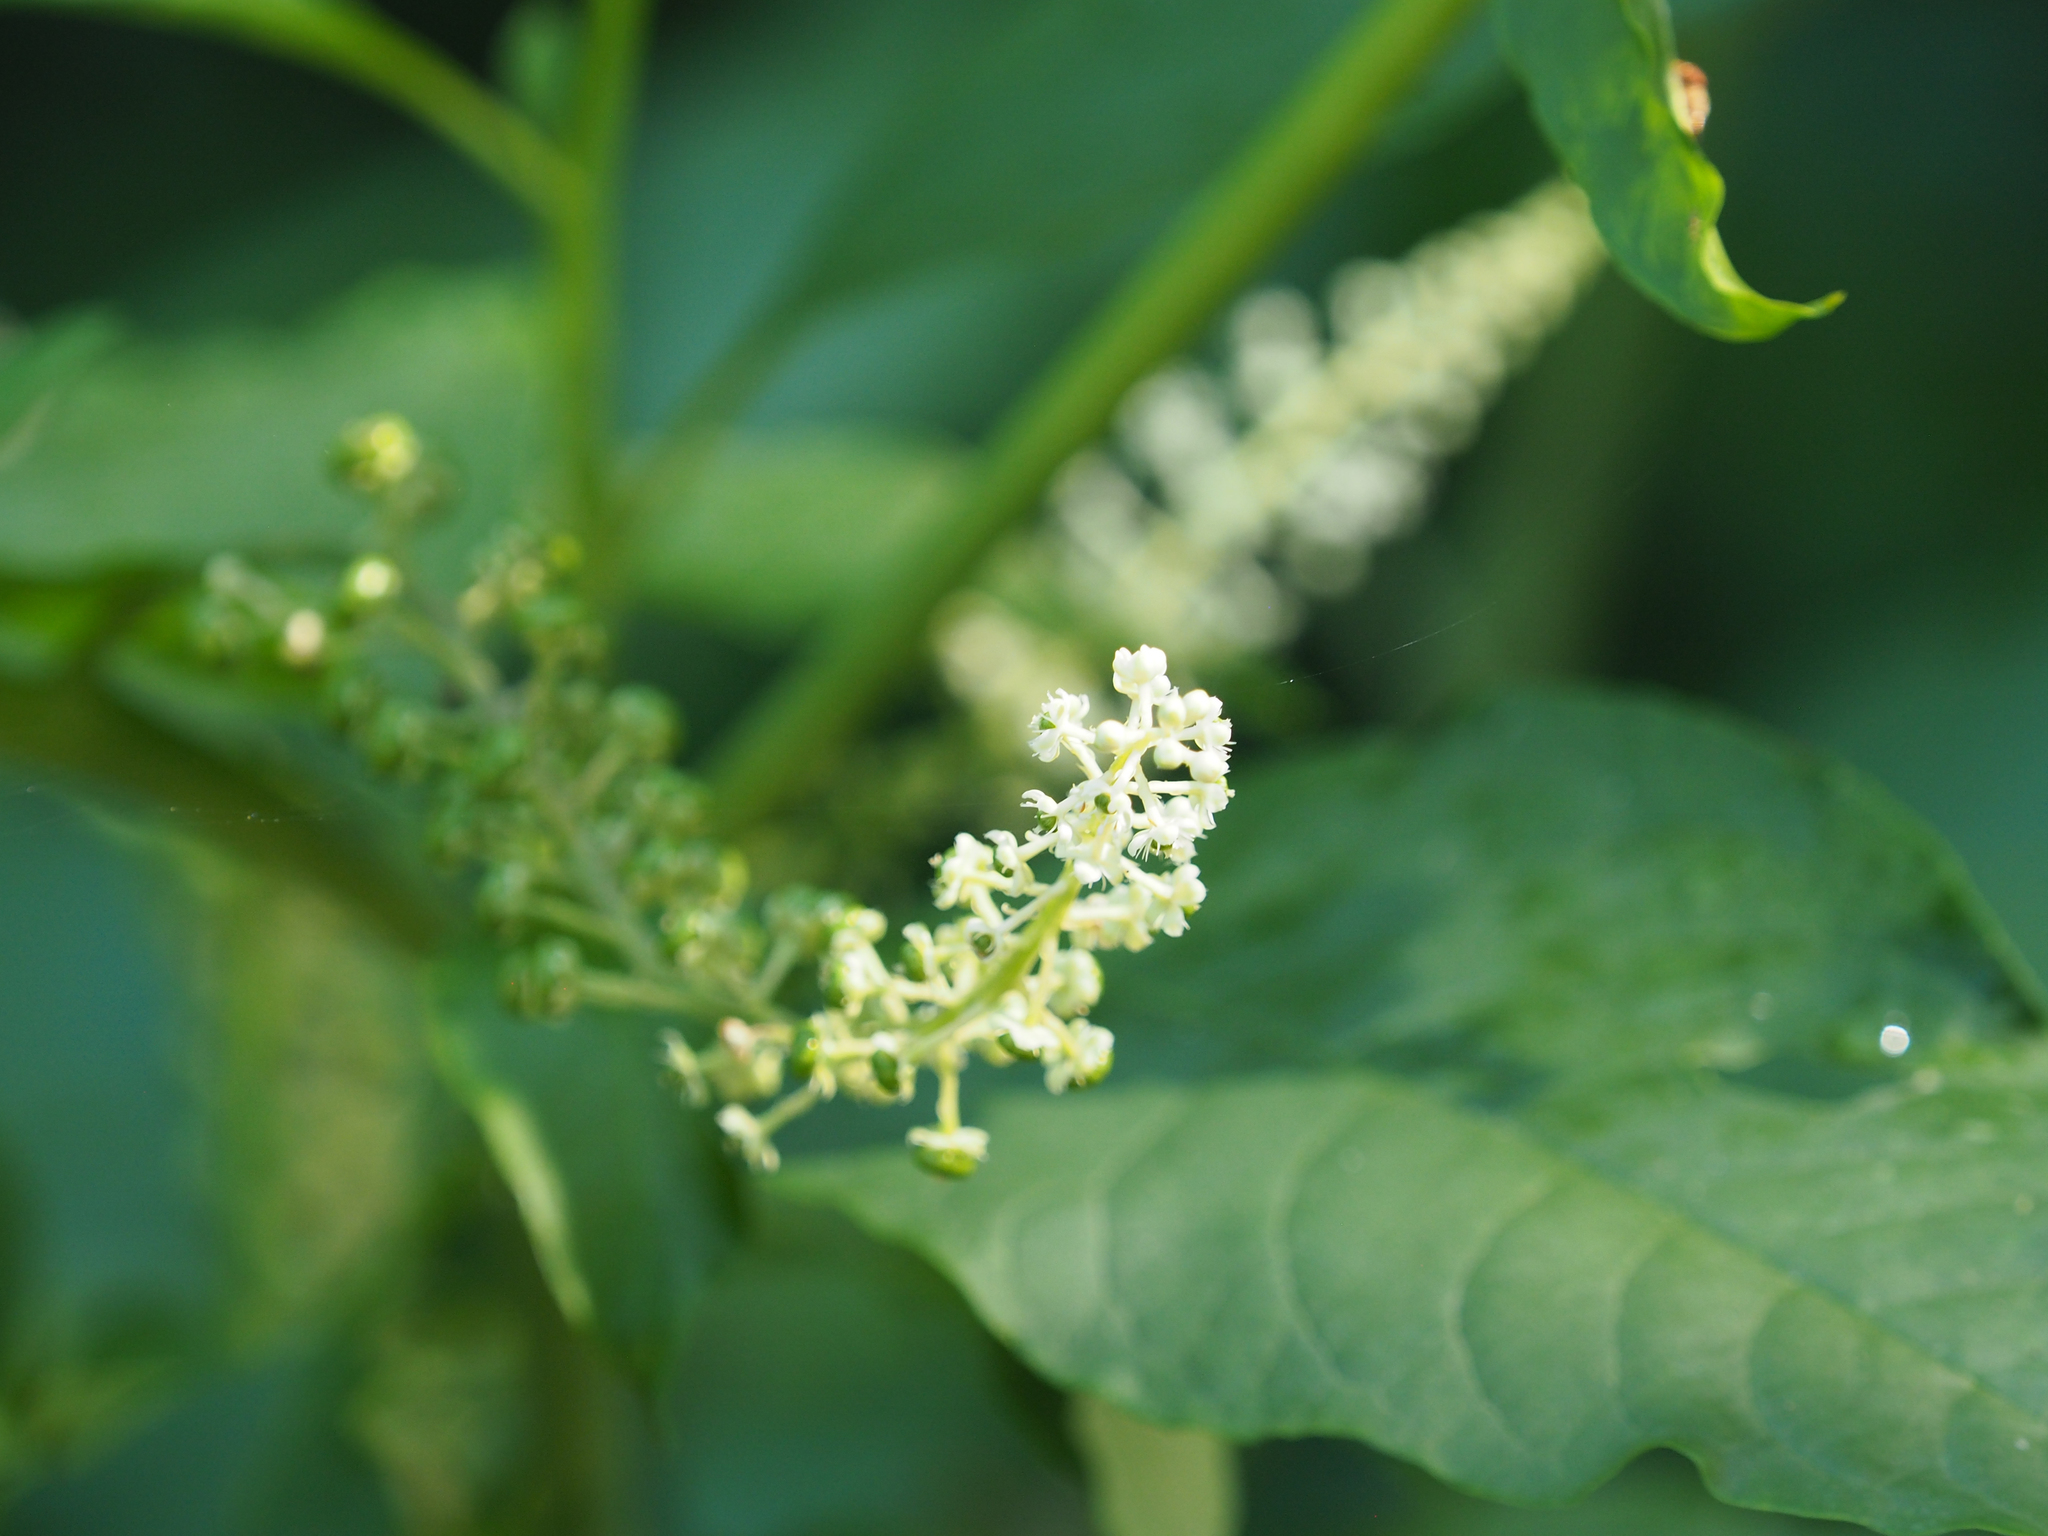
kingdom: Plantae
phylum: Tracheophyta
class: Magnoliopsida
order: Caryophyllales
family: Phytolaccaceae
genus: Phytolacca
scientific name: Phytolacca americana
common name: American pokeweed
